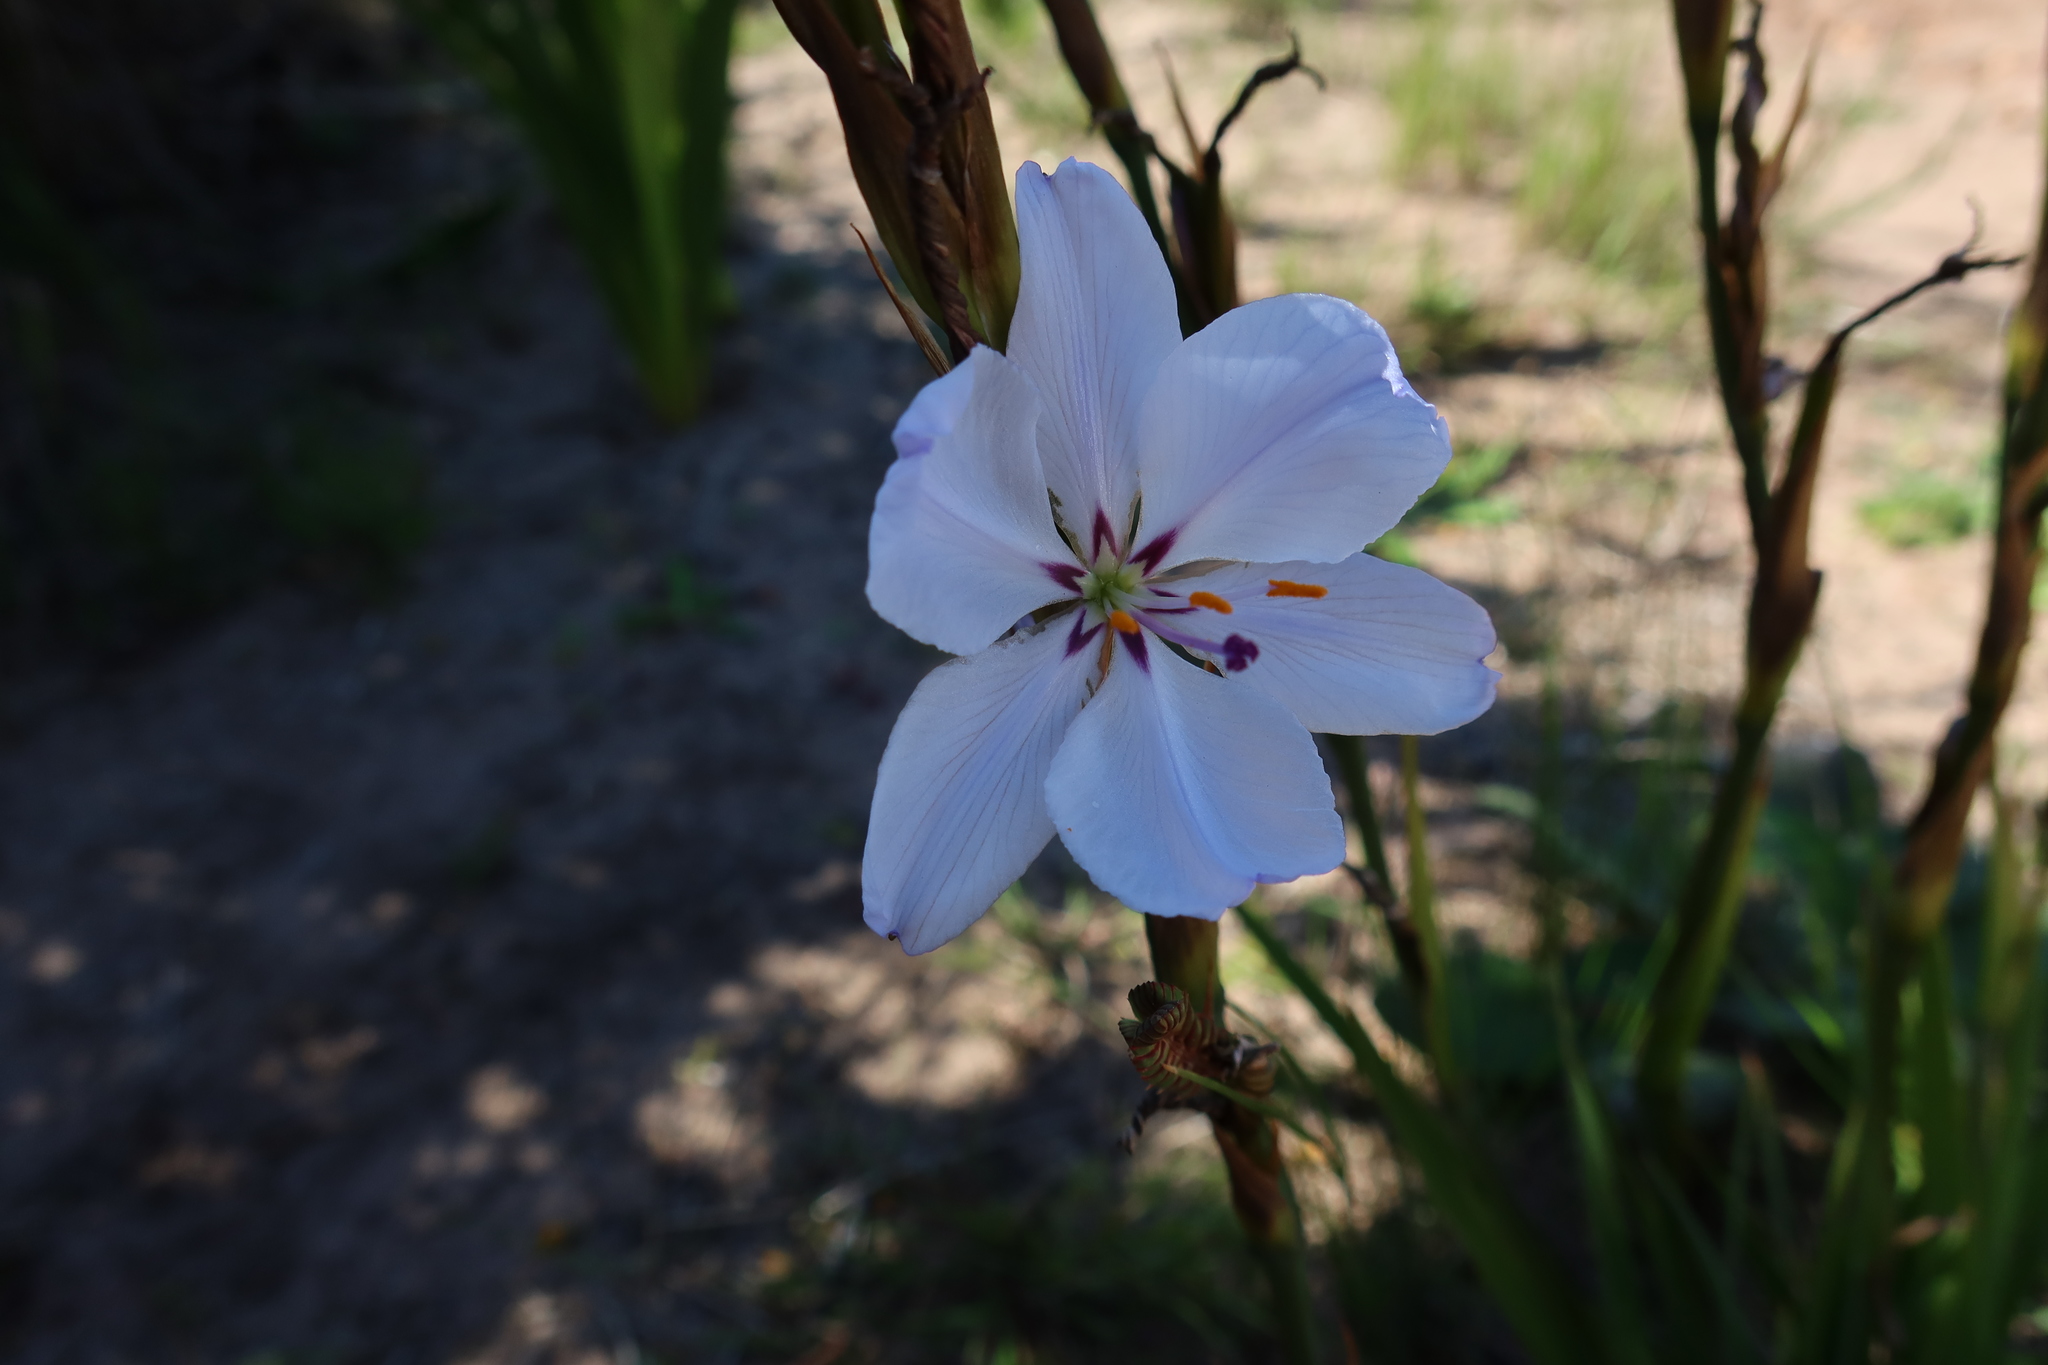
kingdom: Plantae
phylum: Tracheophyta
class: Liliopsida
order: Asparagales
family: Iridaceae
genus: Aristea
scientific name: Aristea spiralis
